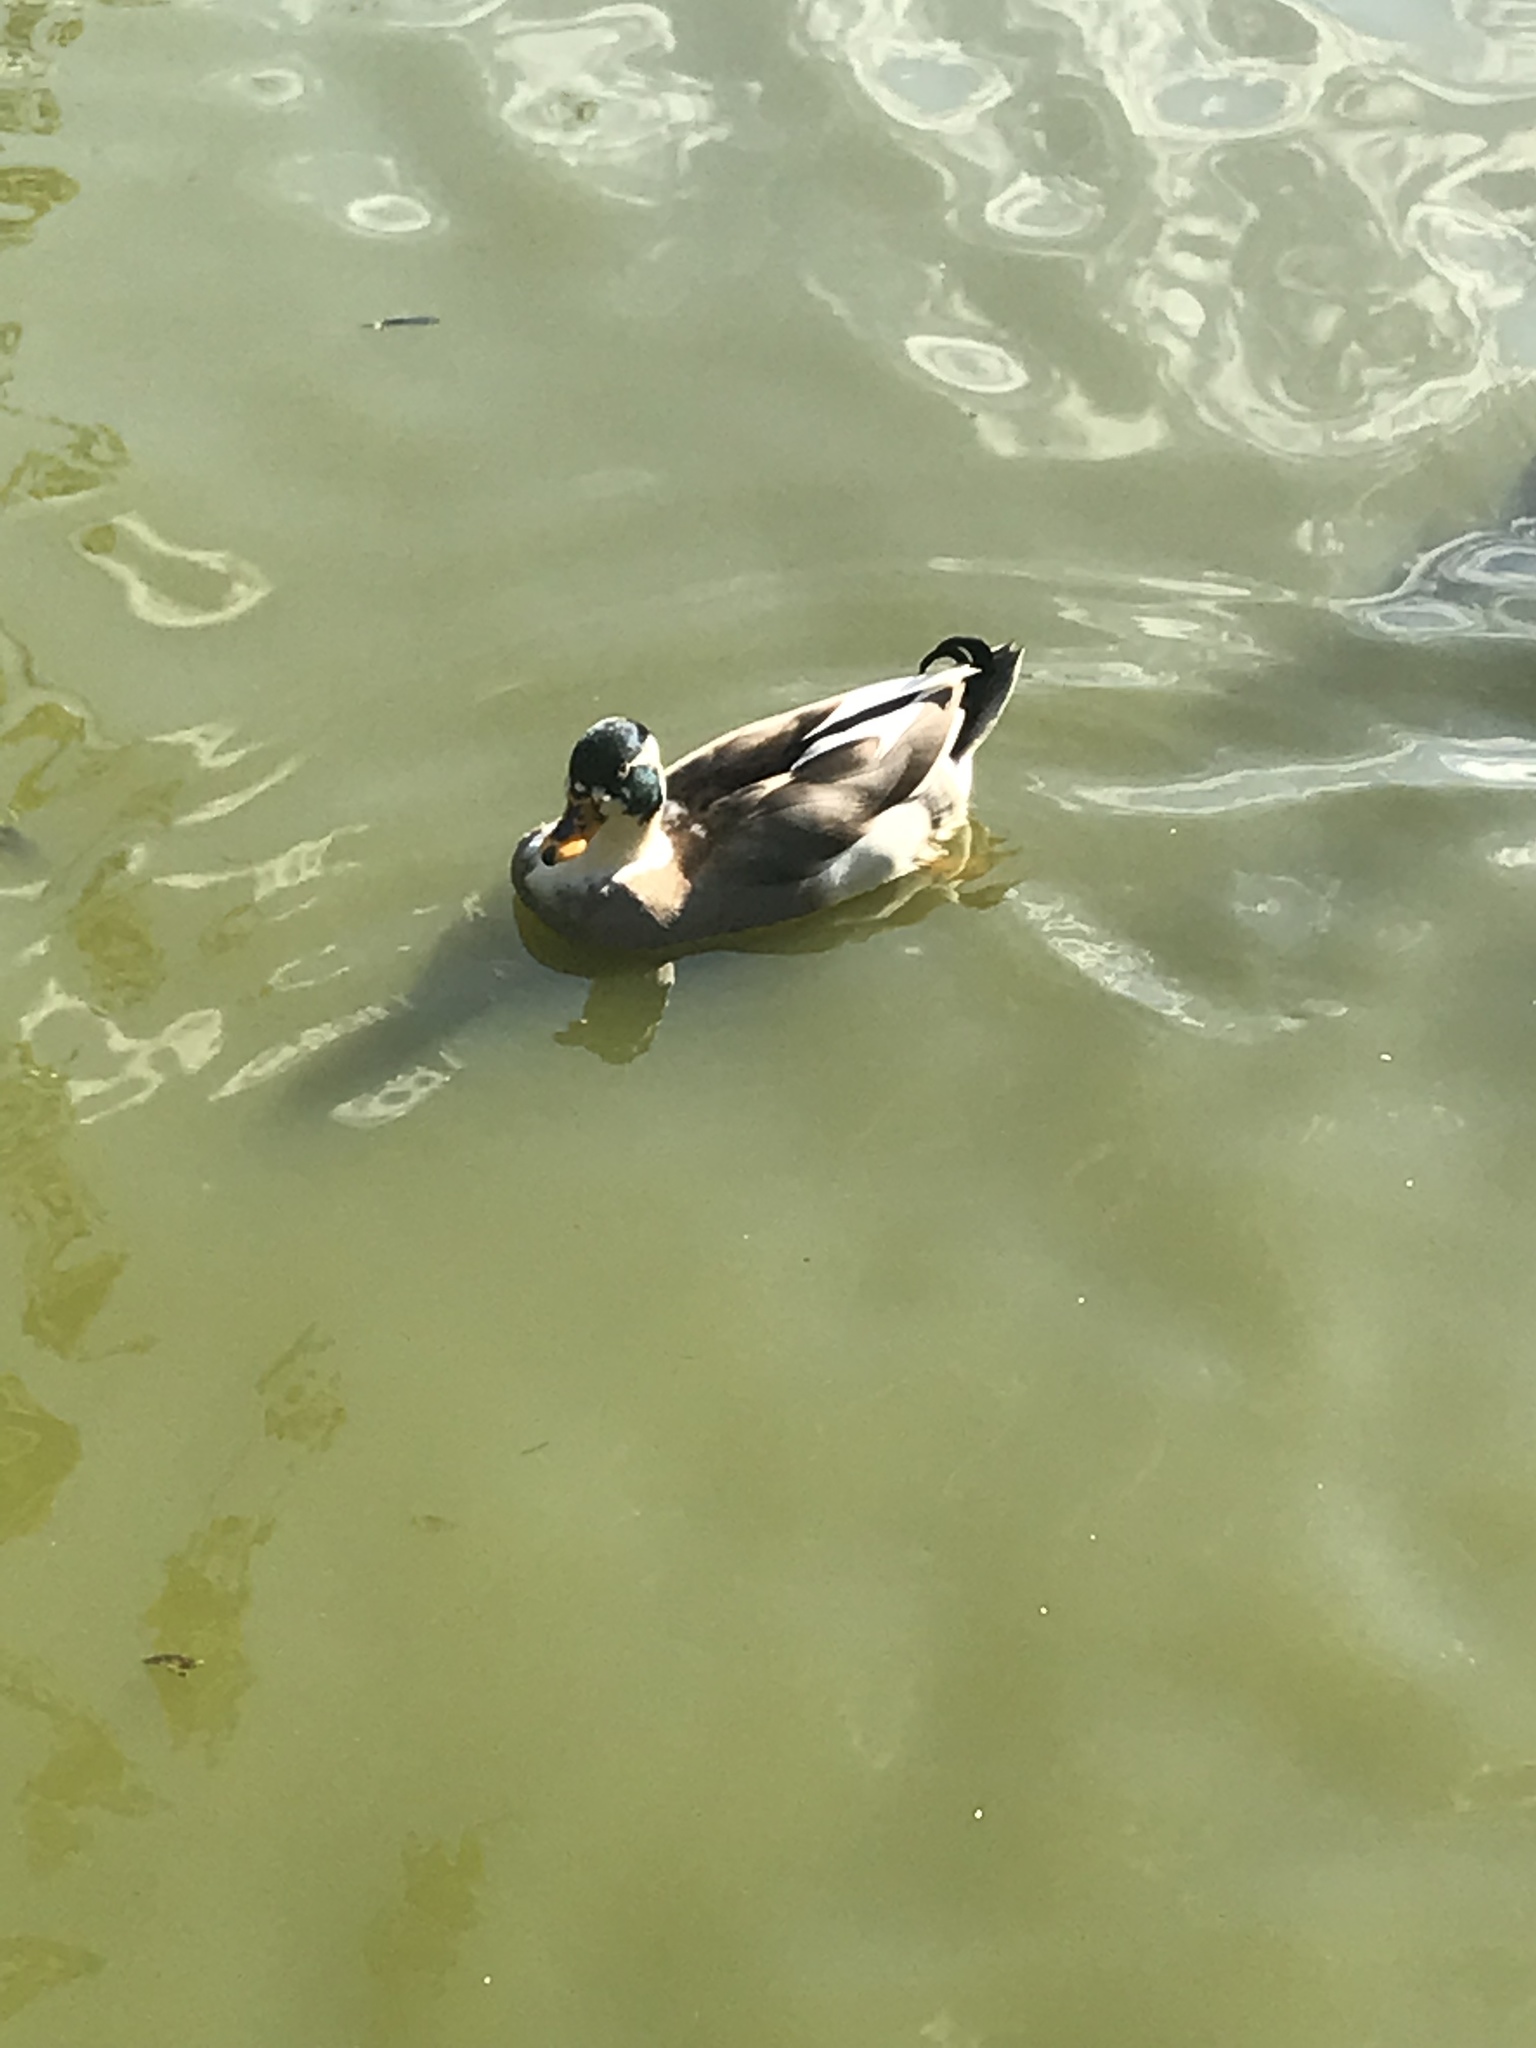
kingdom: Animalia
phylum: Chordata
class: Aves
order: Anseriformes
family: Anatidae
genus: Anas
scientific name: Anas platyrhynchos
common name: Mallard
